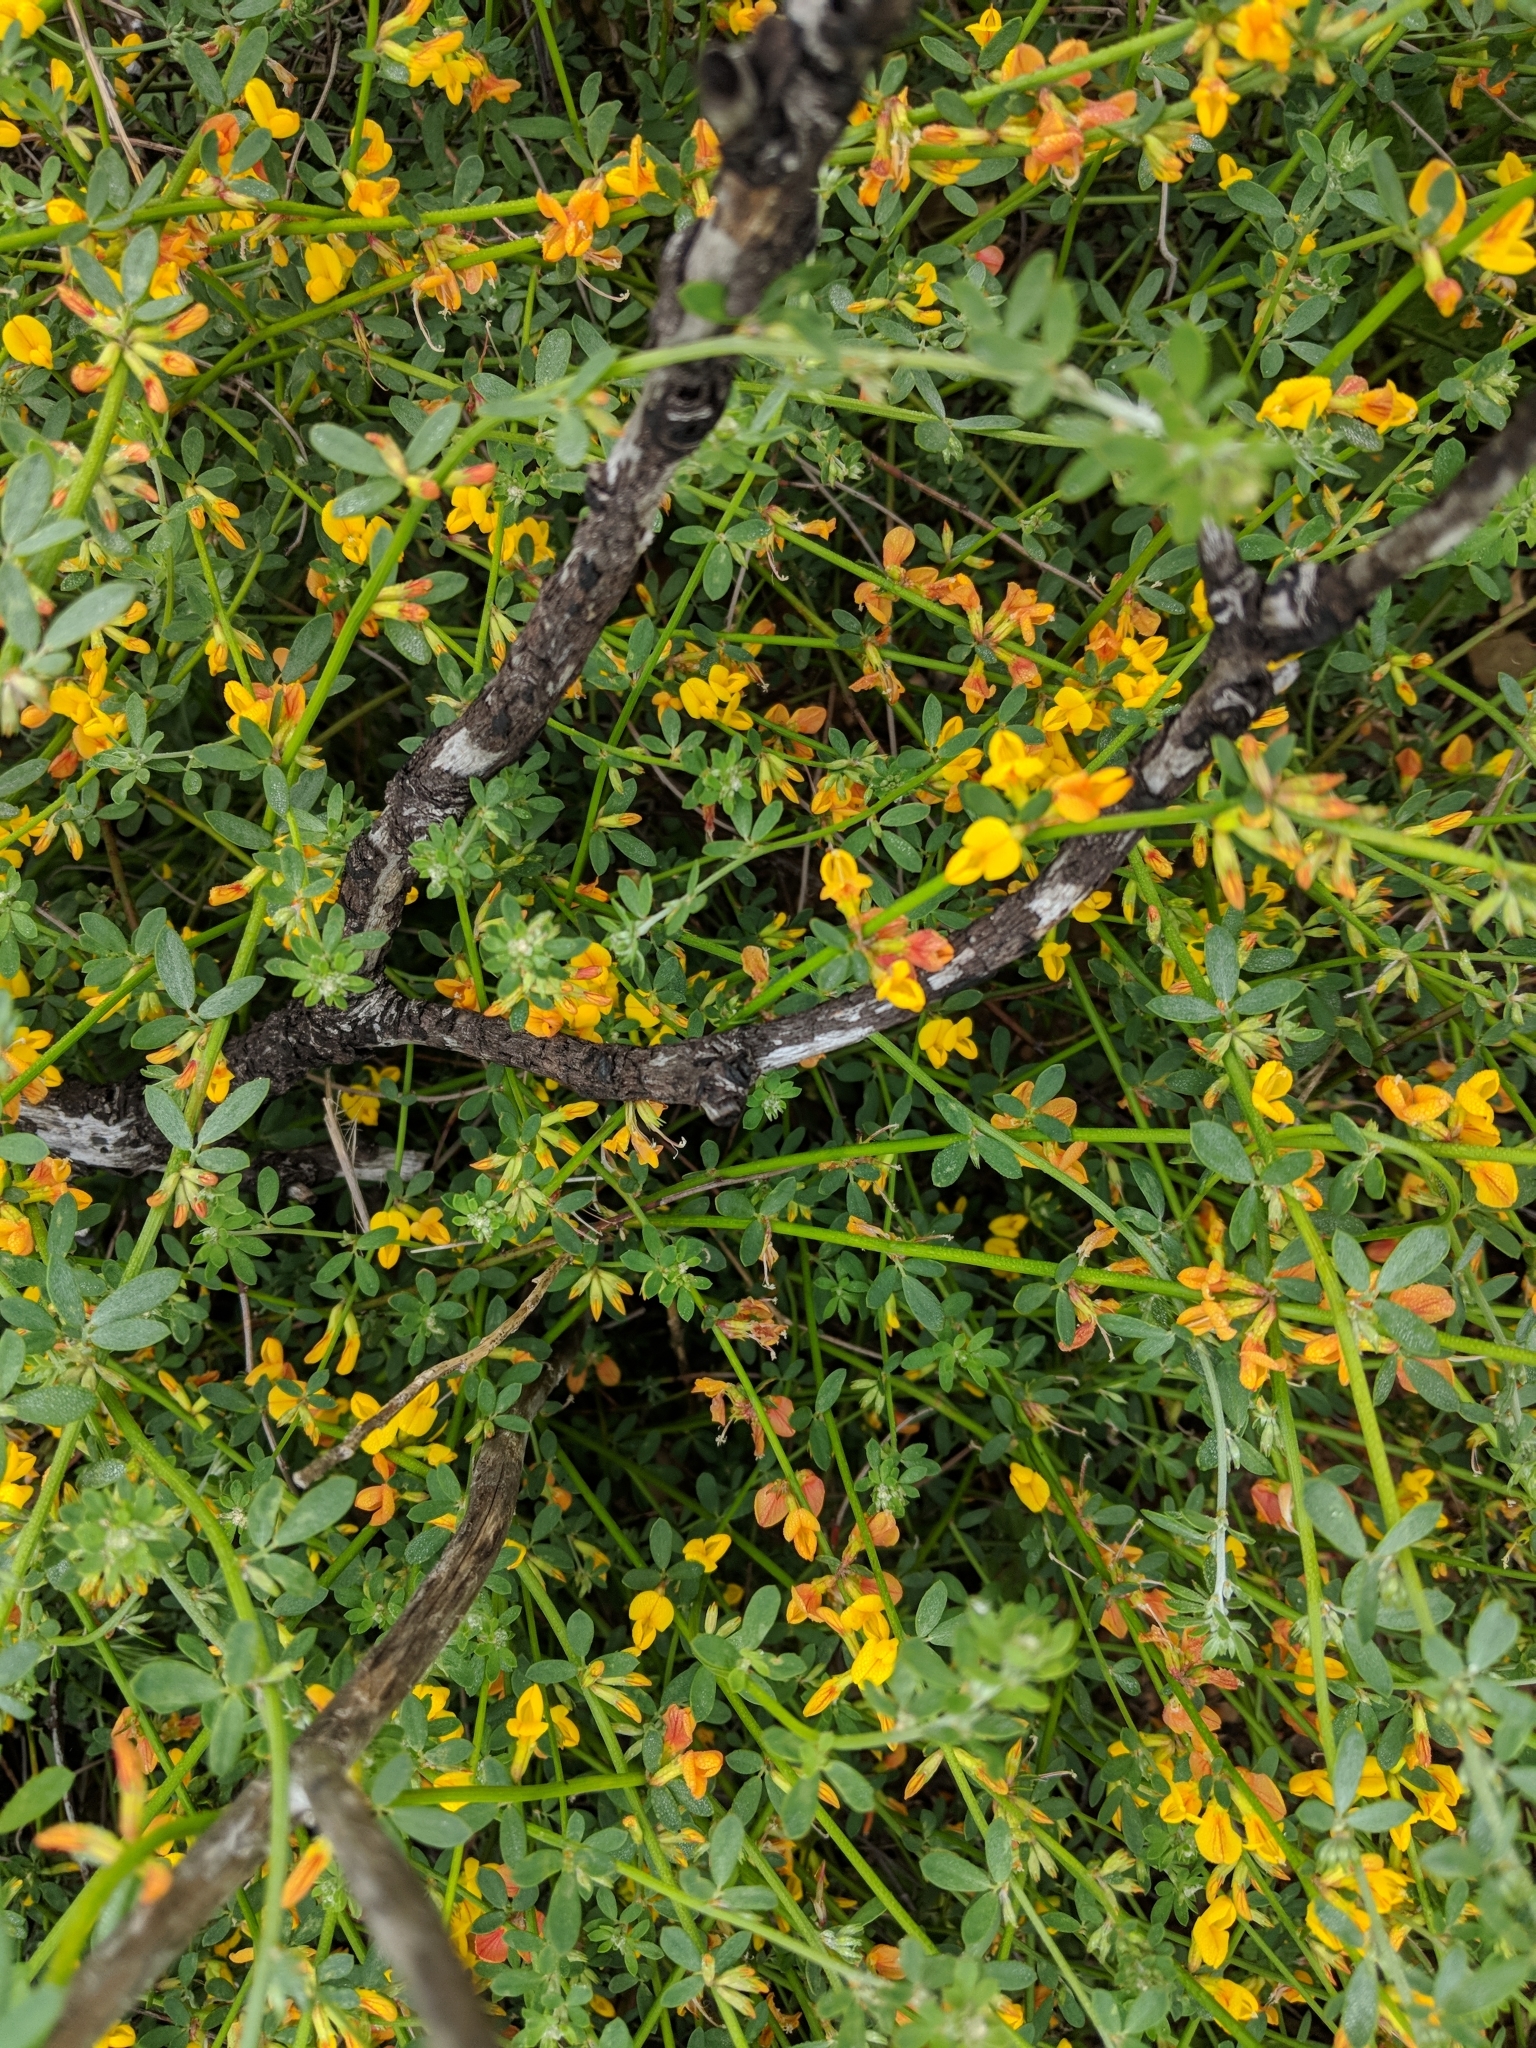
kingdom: Plantae
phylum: Tracheophyta
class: Magnoliopsida
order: Fabales
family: Fabaceae
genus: Acmispon
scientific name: Acmispon glaber
